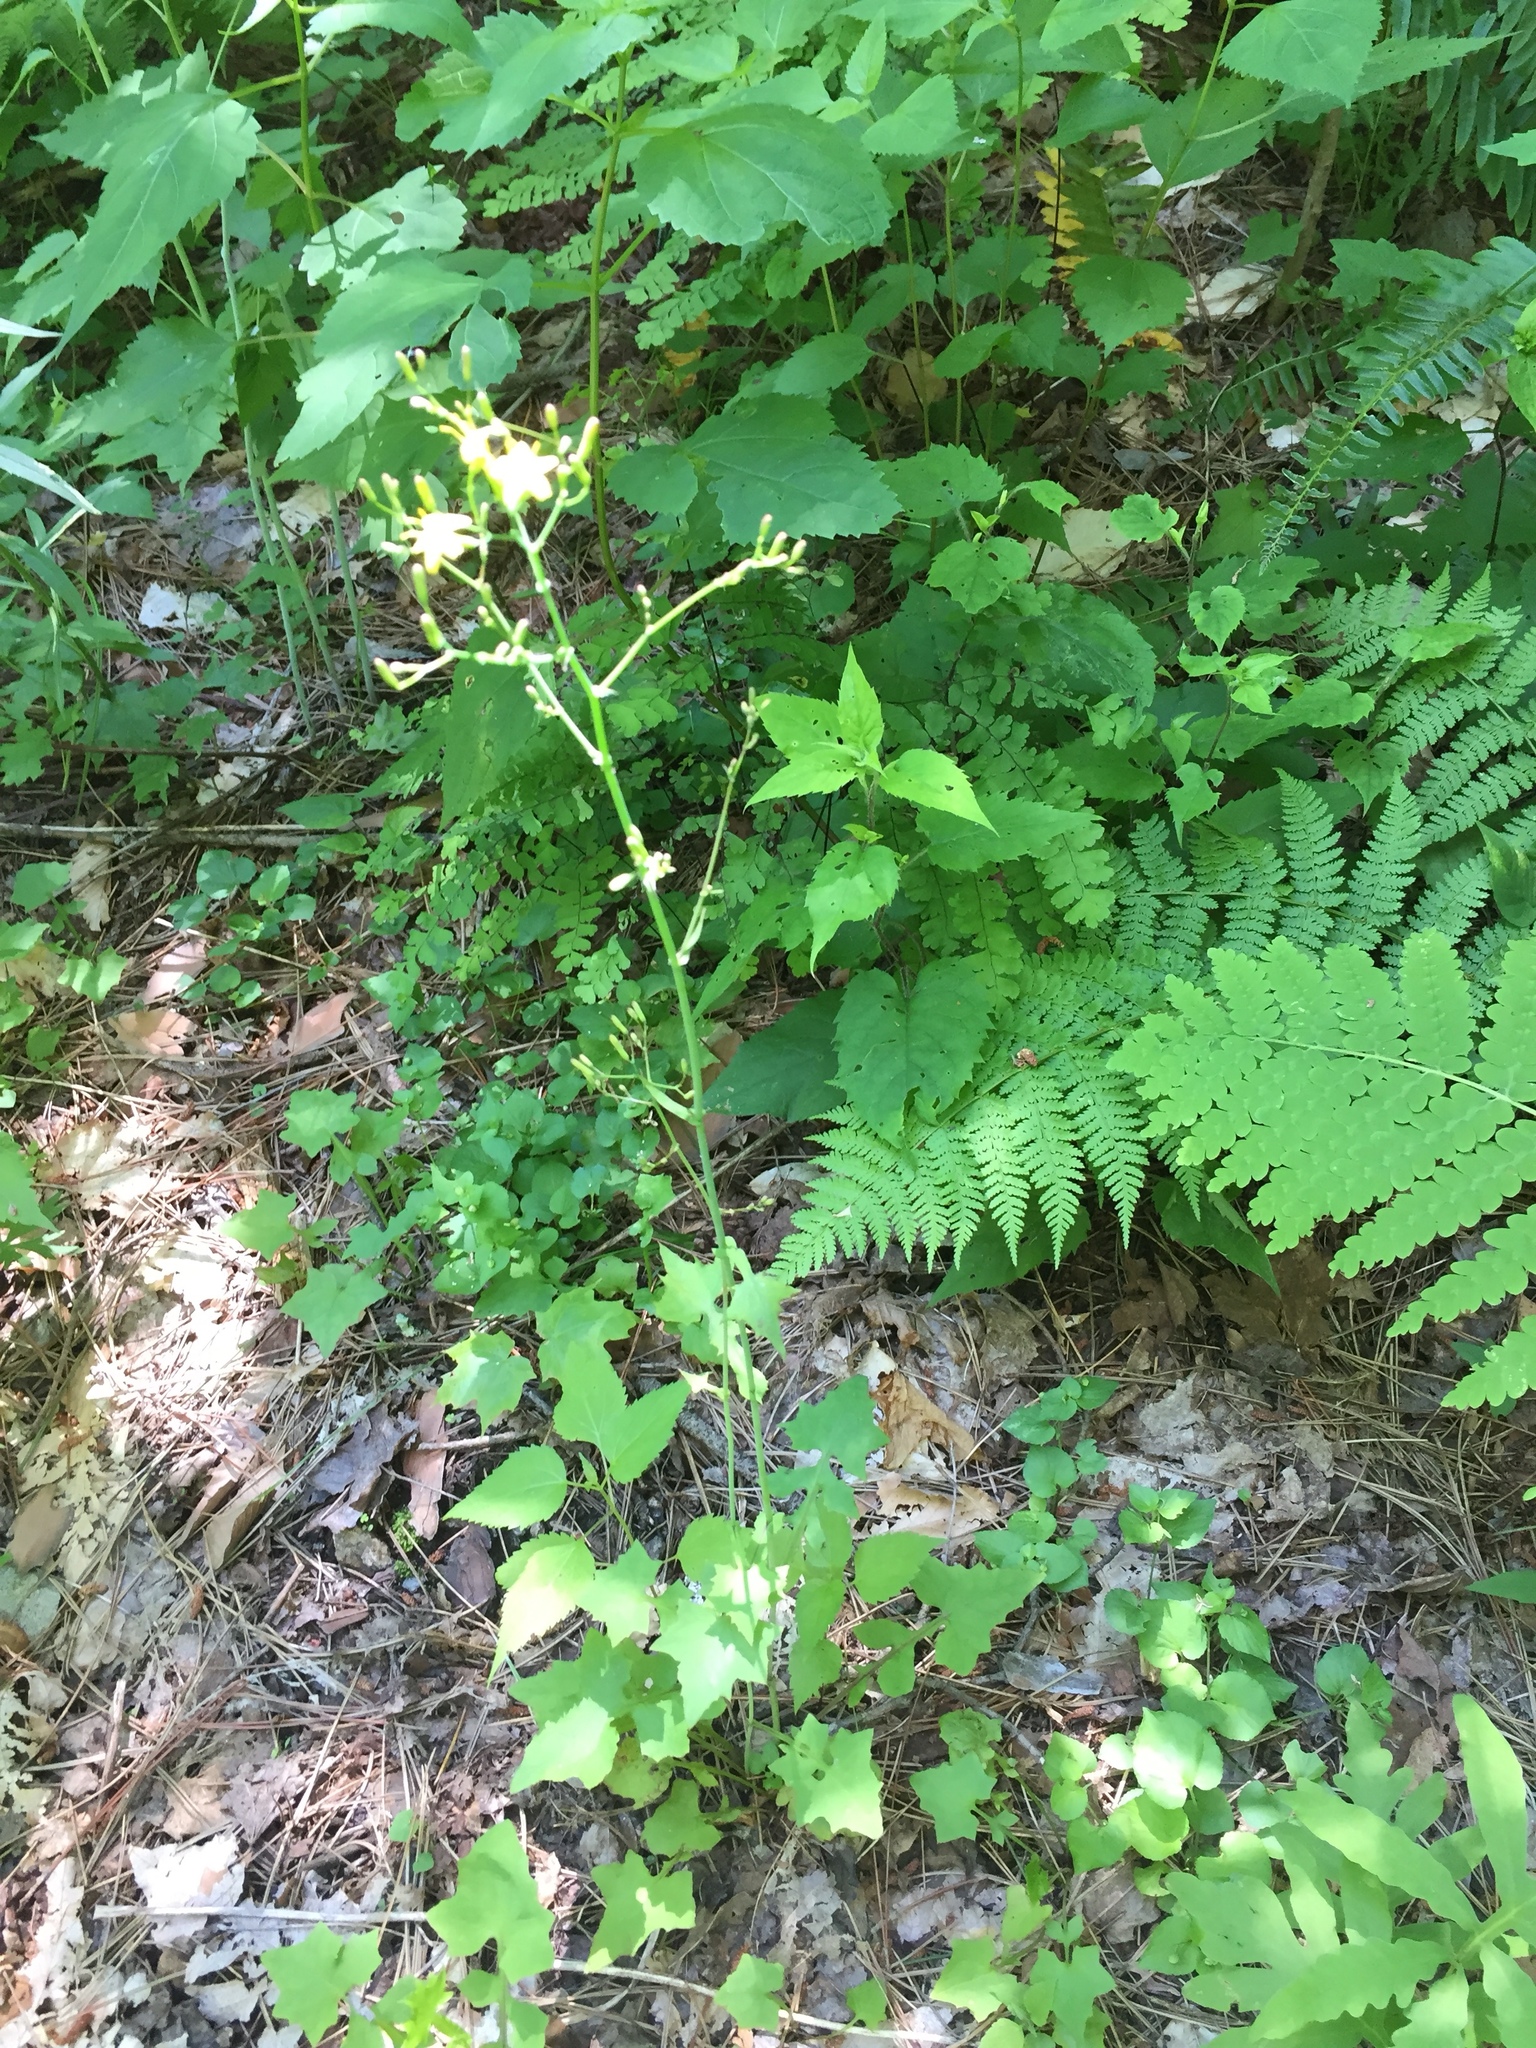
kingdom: Plantae
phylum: Tracheophyta
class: Magnoliopsida
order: Asterales
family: Asteraceae
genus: Mycelis
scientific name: Mycelis muralis
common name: Wall lettuce
